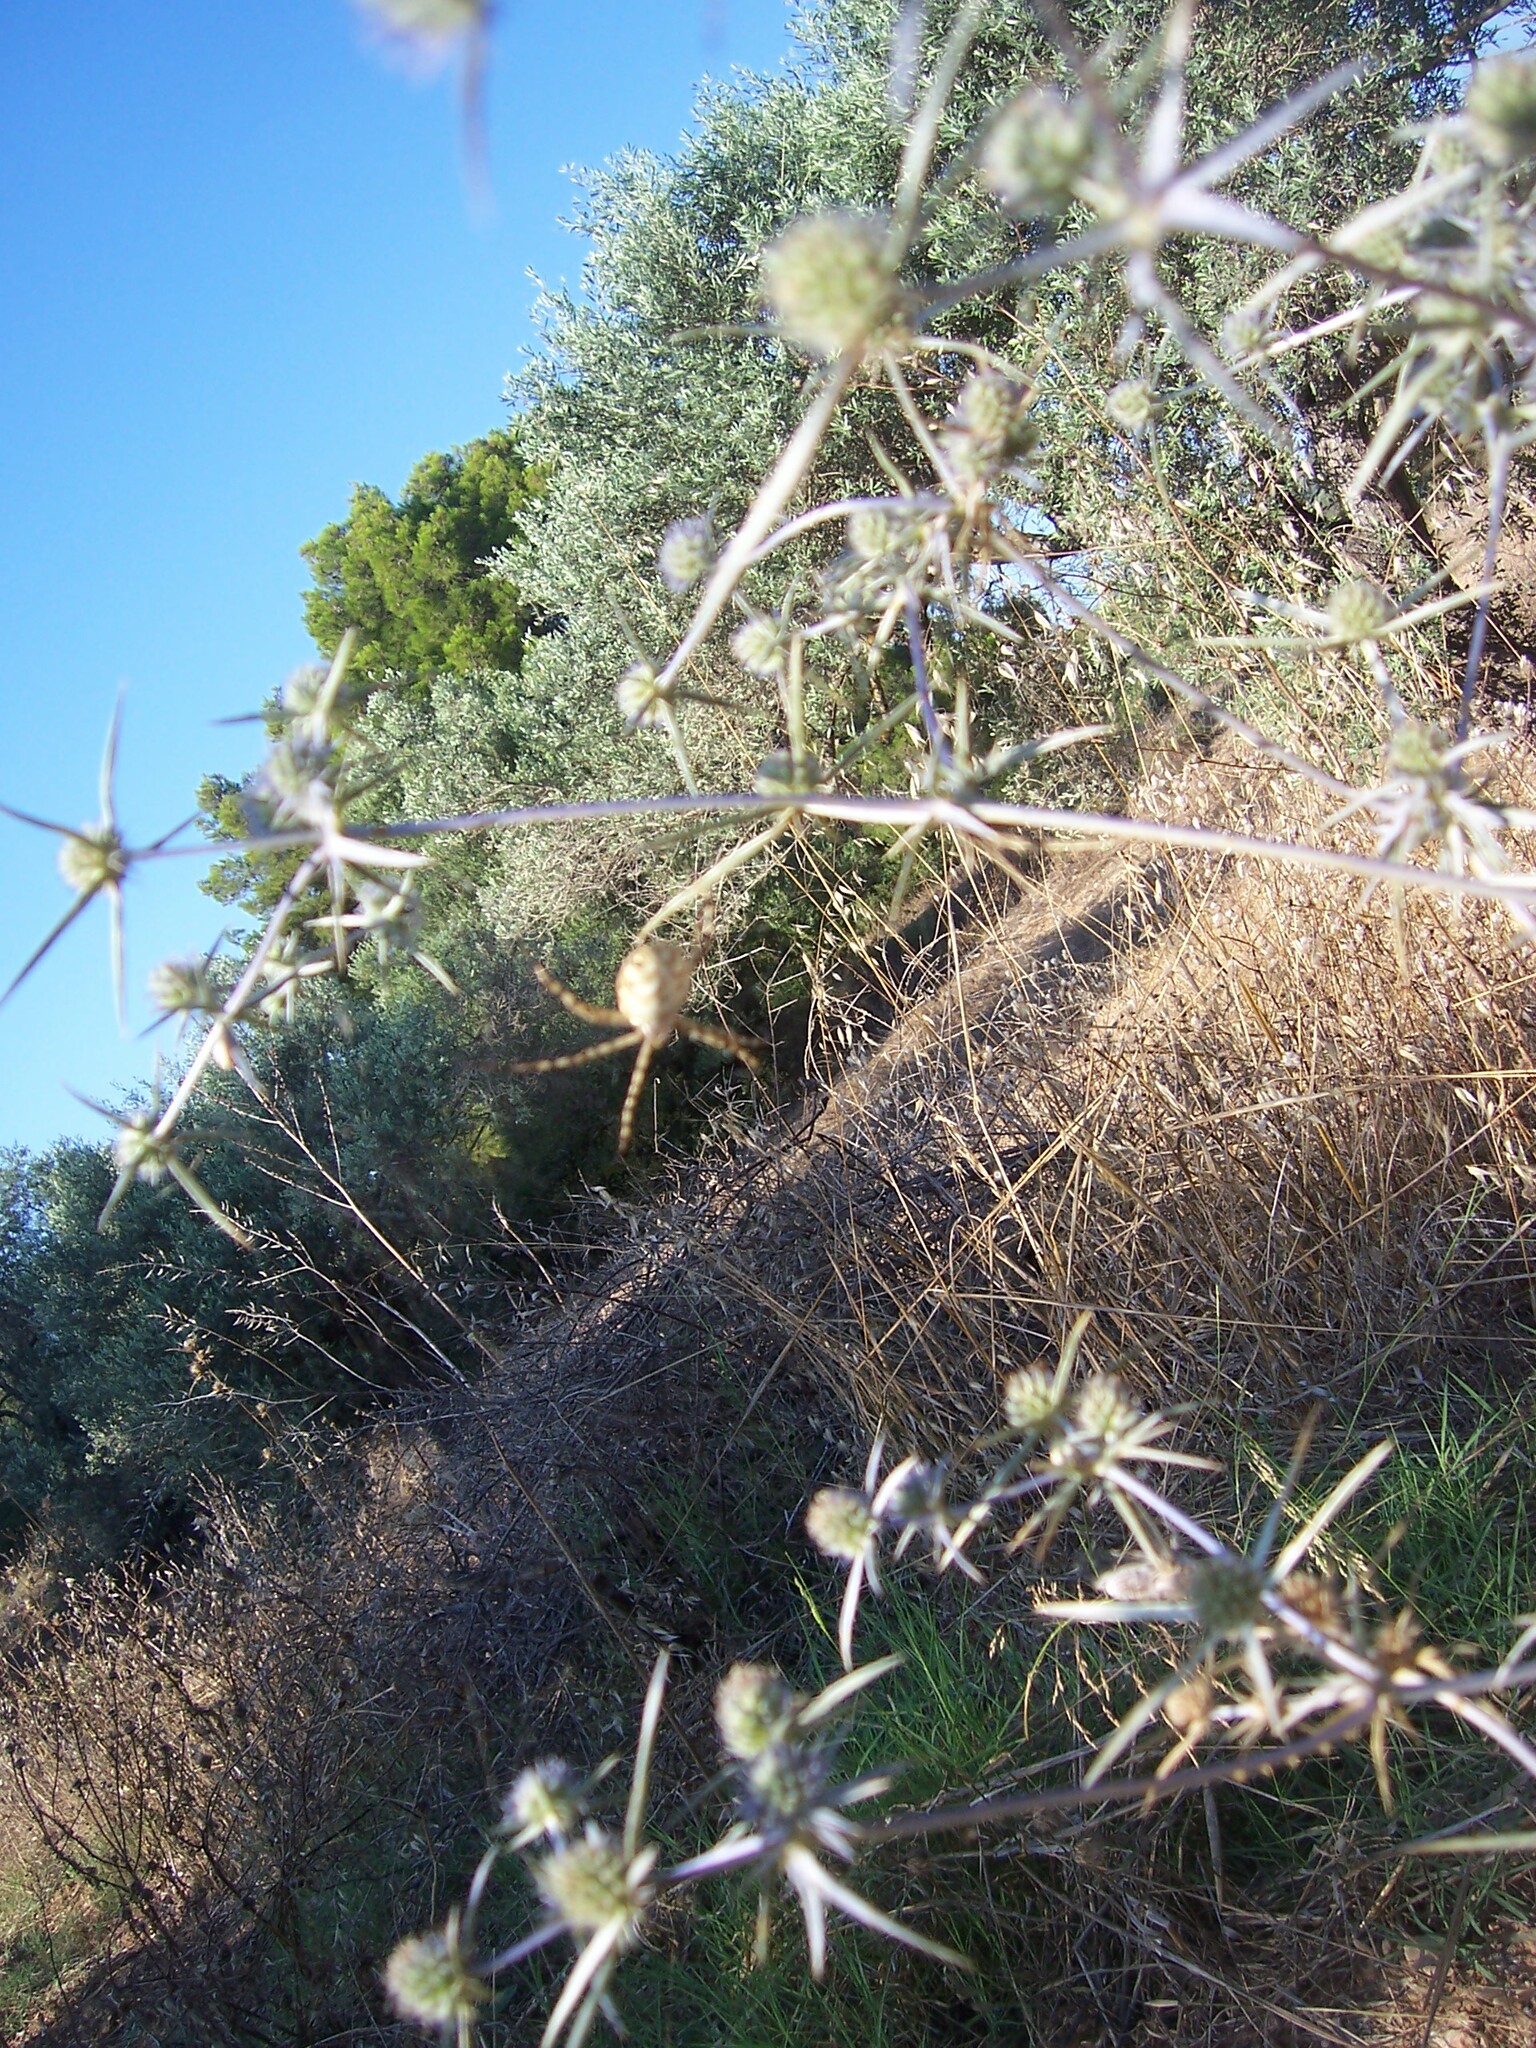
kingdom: Animalia
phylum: Arthropoda
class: Arachnida
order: Araneae
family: Araneidae
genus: Argiope
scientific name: Argiope lobata
